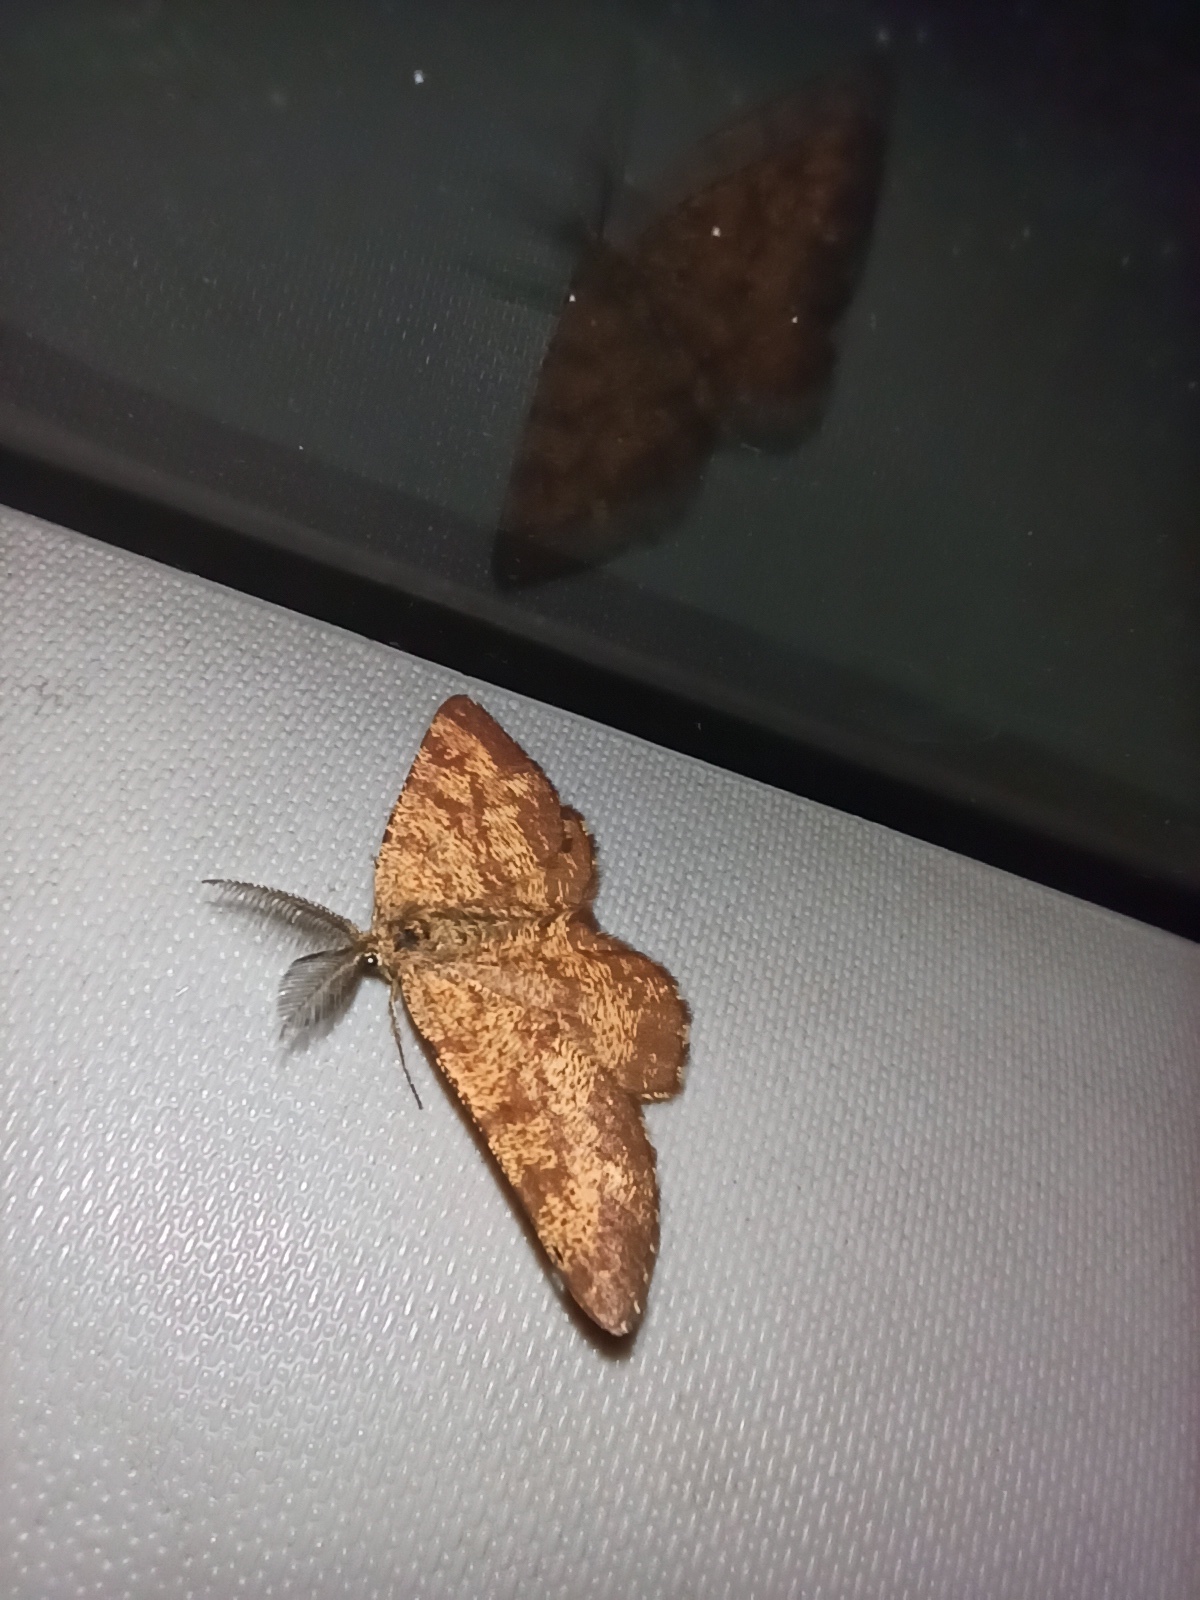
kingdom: Animalia
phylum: Arthropoda
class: Insecta
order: Lepidoptera
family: Geometridae
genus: Ematurga
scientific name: Ematurga atomaria
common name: Common heath
